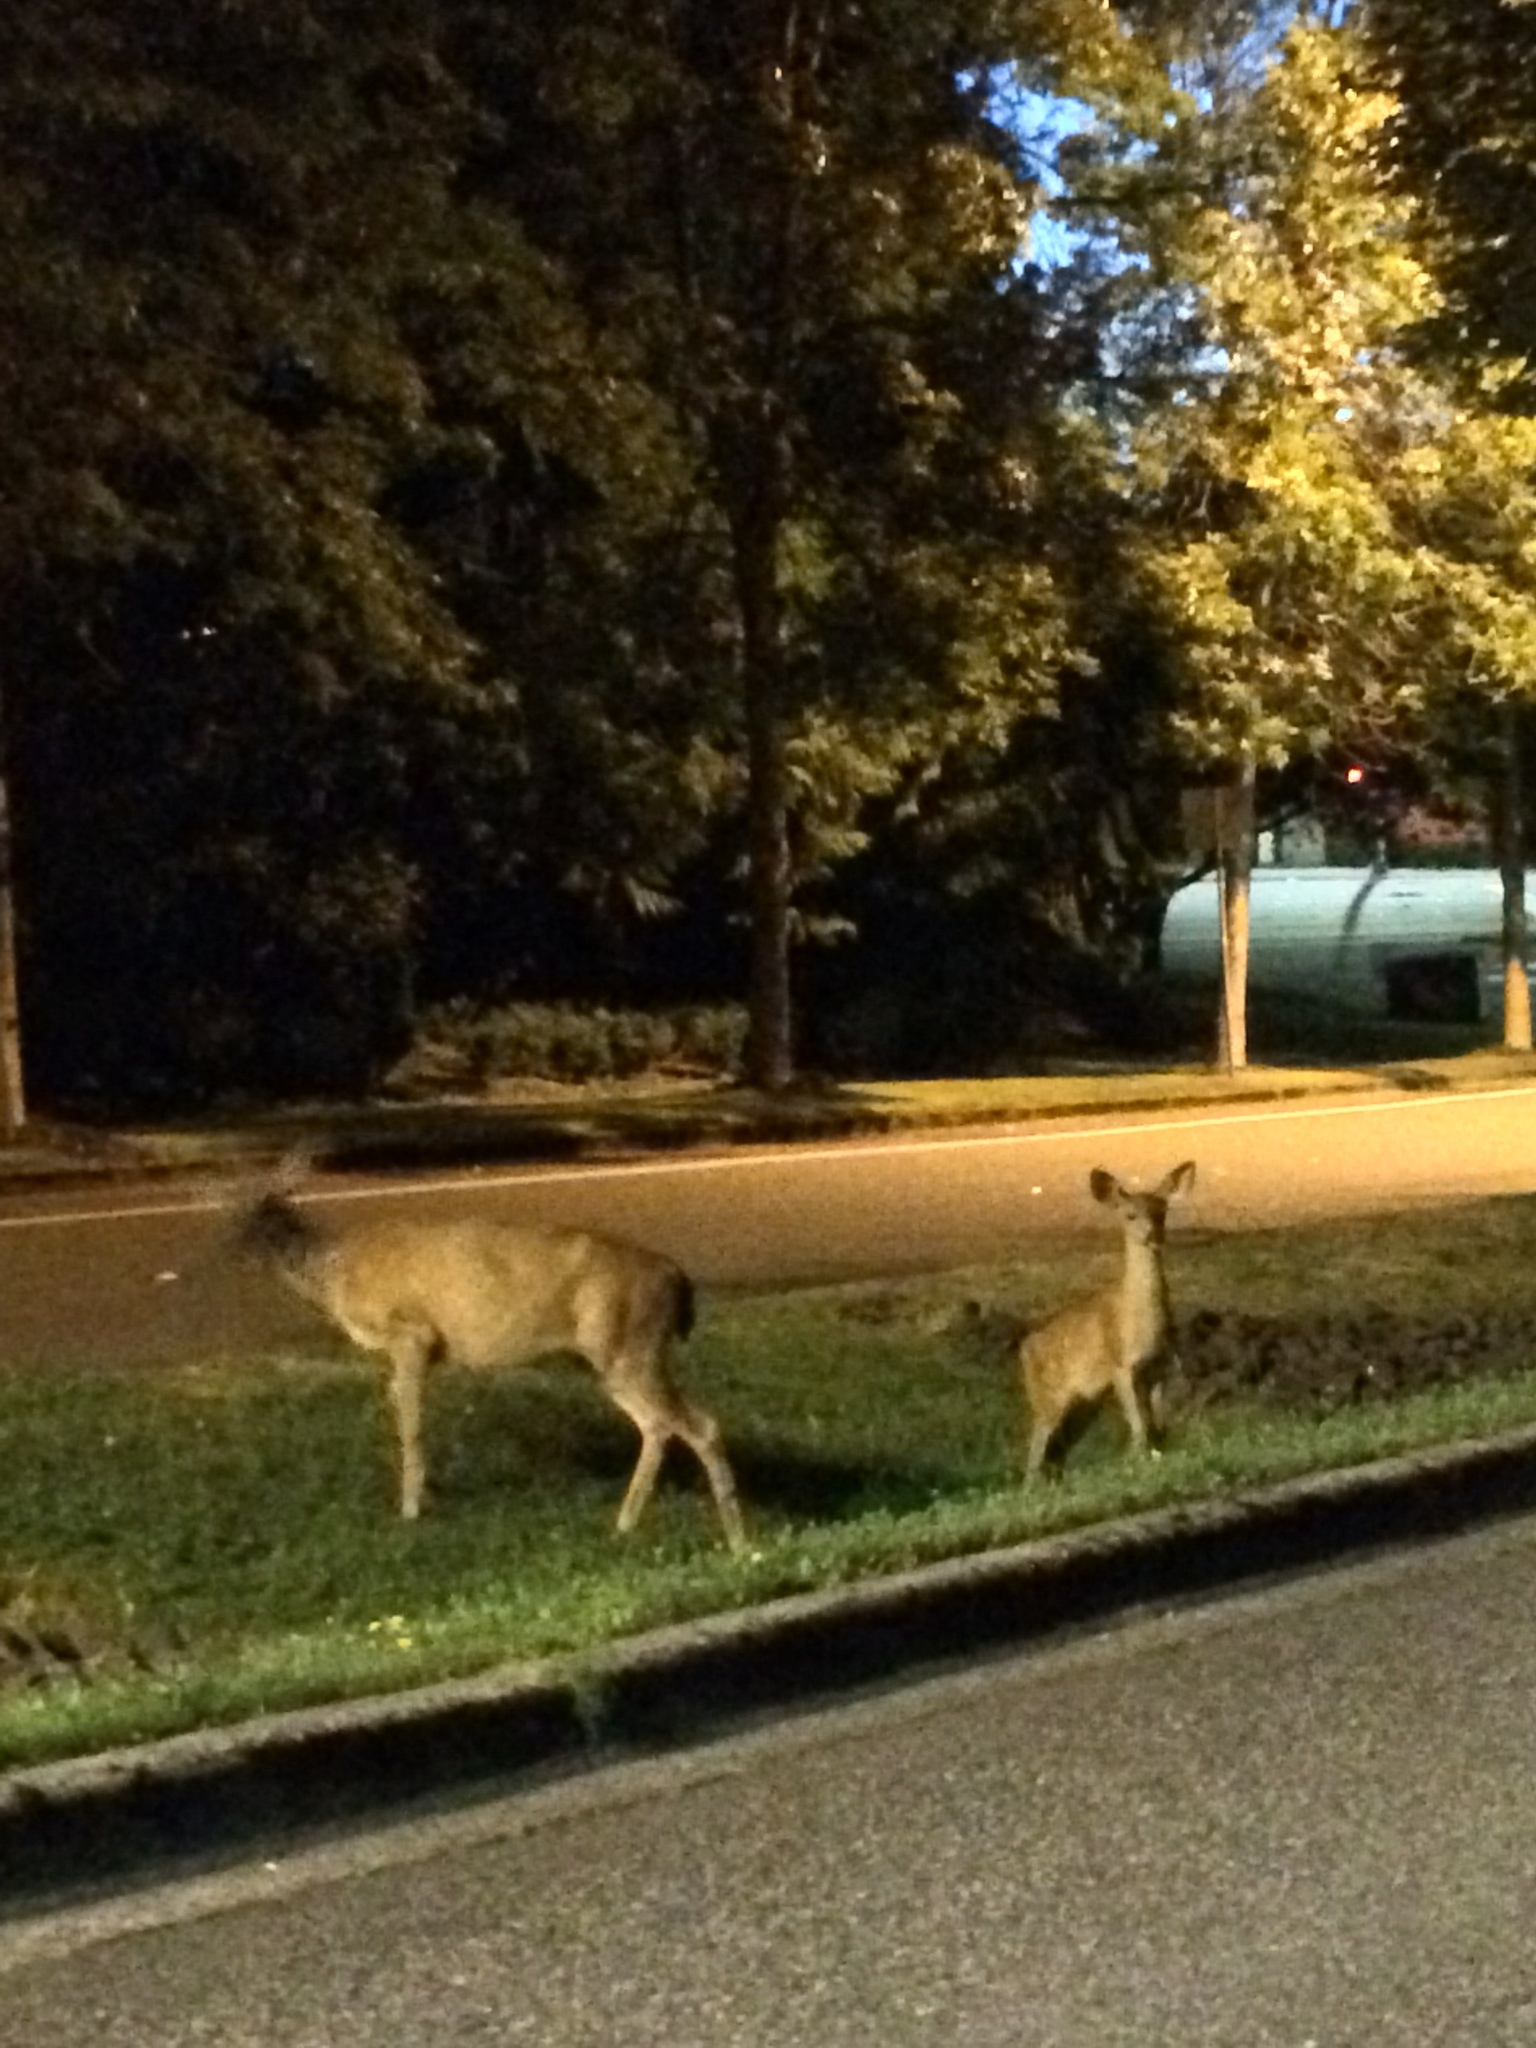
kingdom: Animalia
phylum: Chordata
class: Mammalia
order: Artiodactyla
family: Cervidae
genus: Odocoileus
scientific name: Odocoileus hemionus
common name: Mule deer
